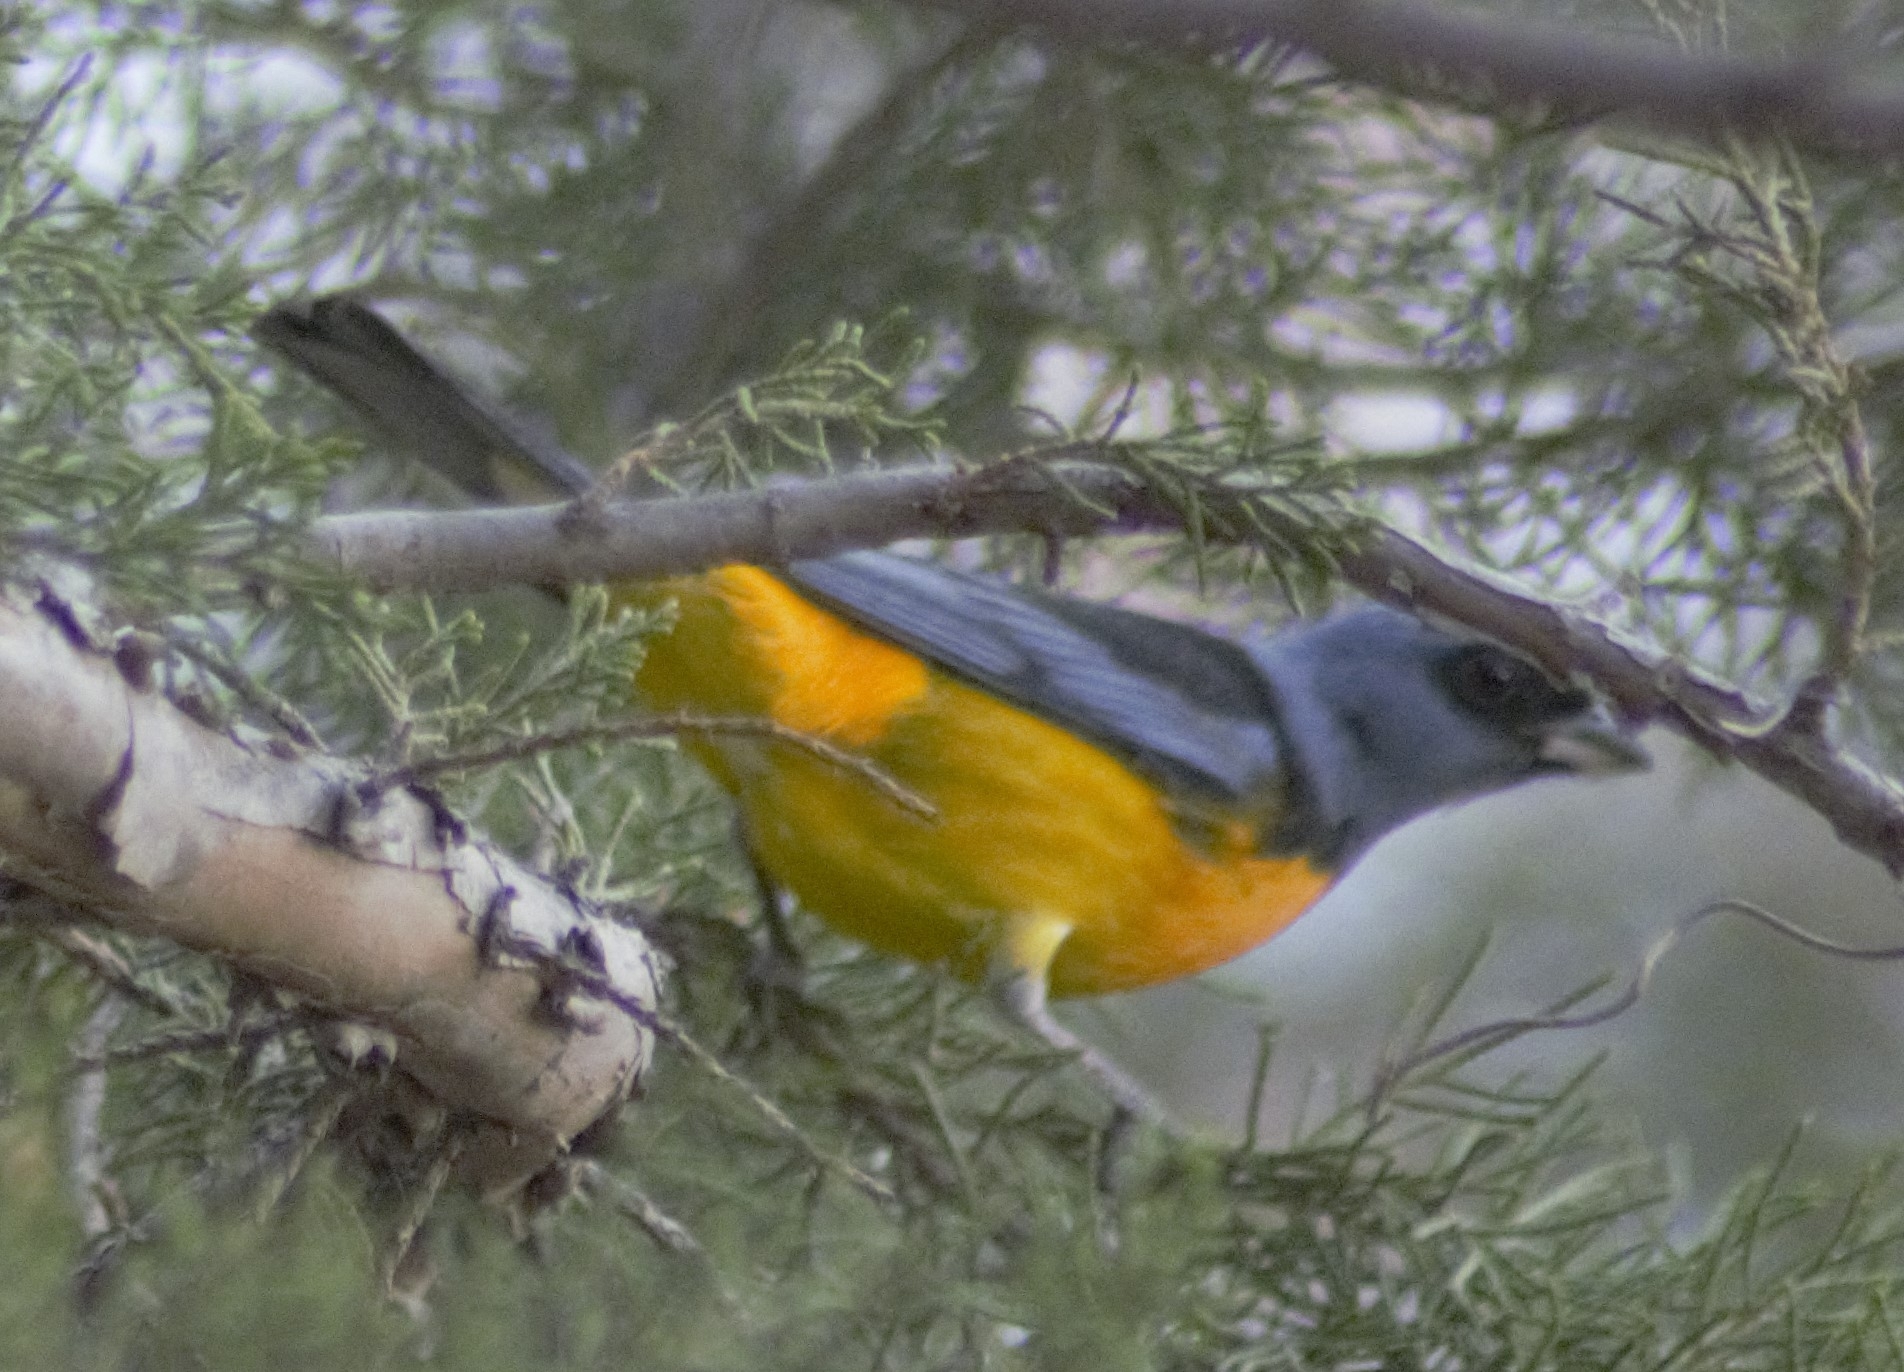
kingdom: Animalia
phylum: Chordata
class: Aves
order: Passeriformes
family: Thraupidae
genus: Rauenia
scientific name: Rauenia bonariensis
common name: Blue-and-yellow tanager
